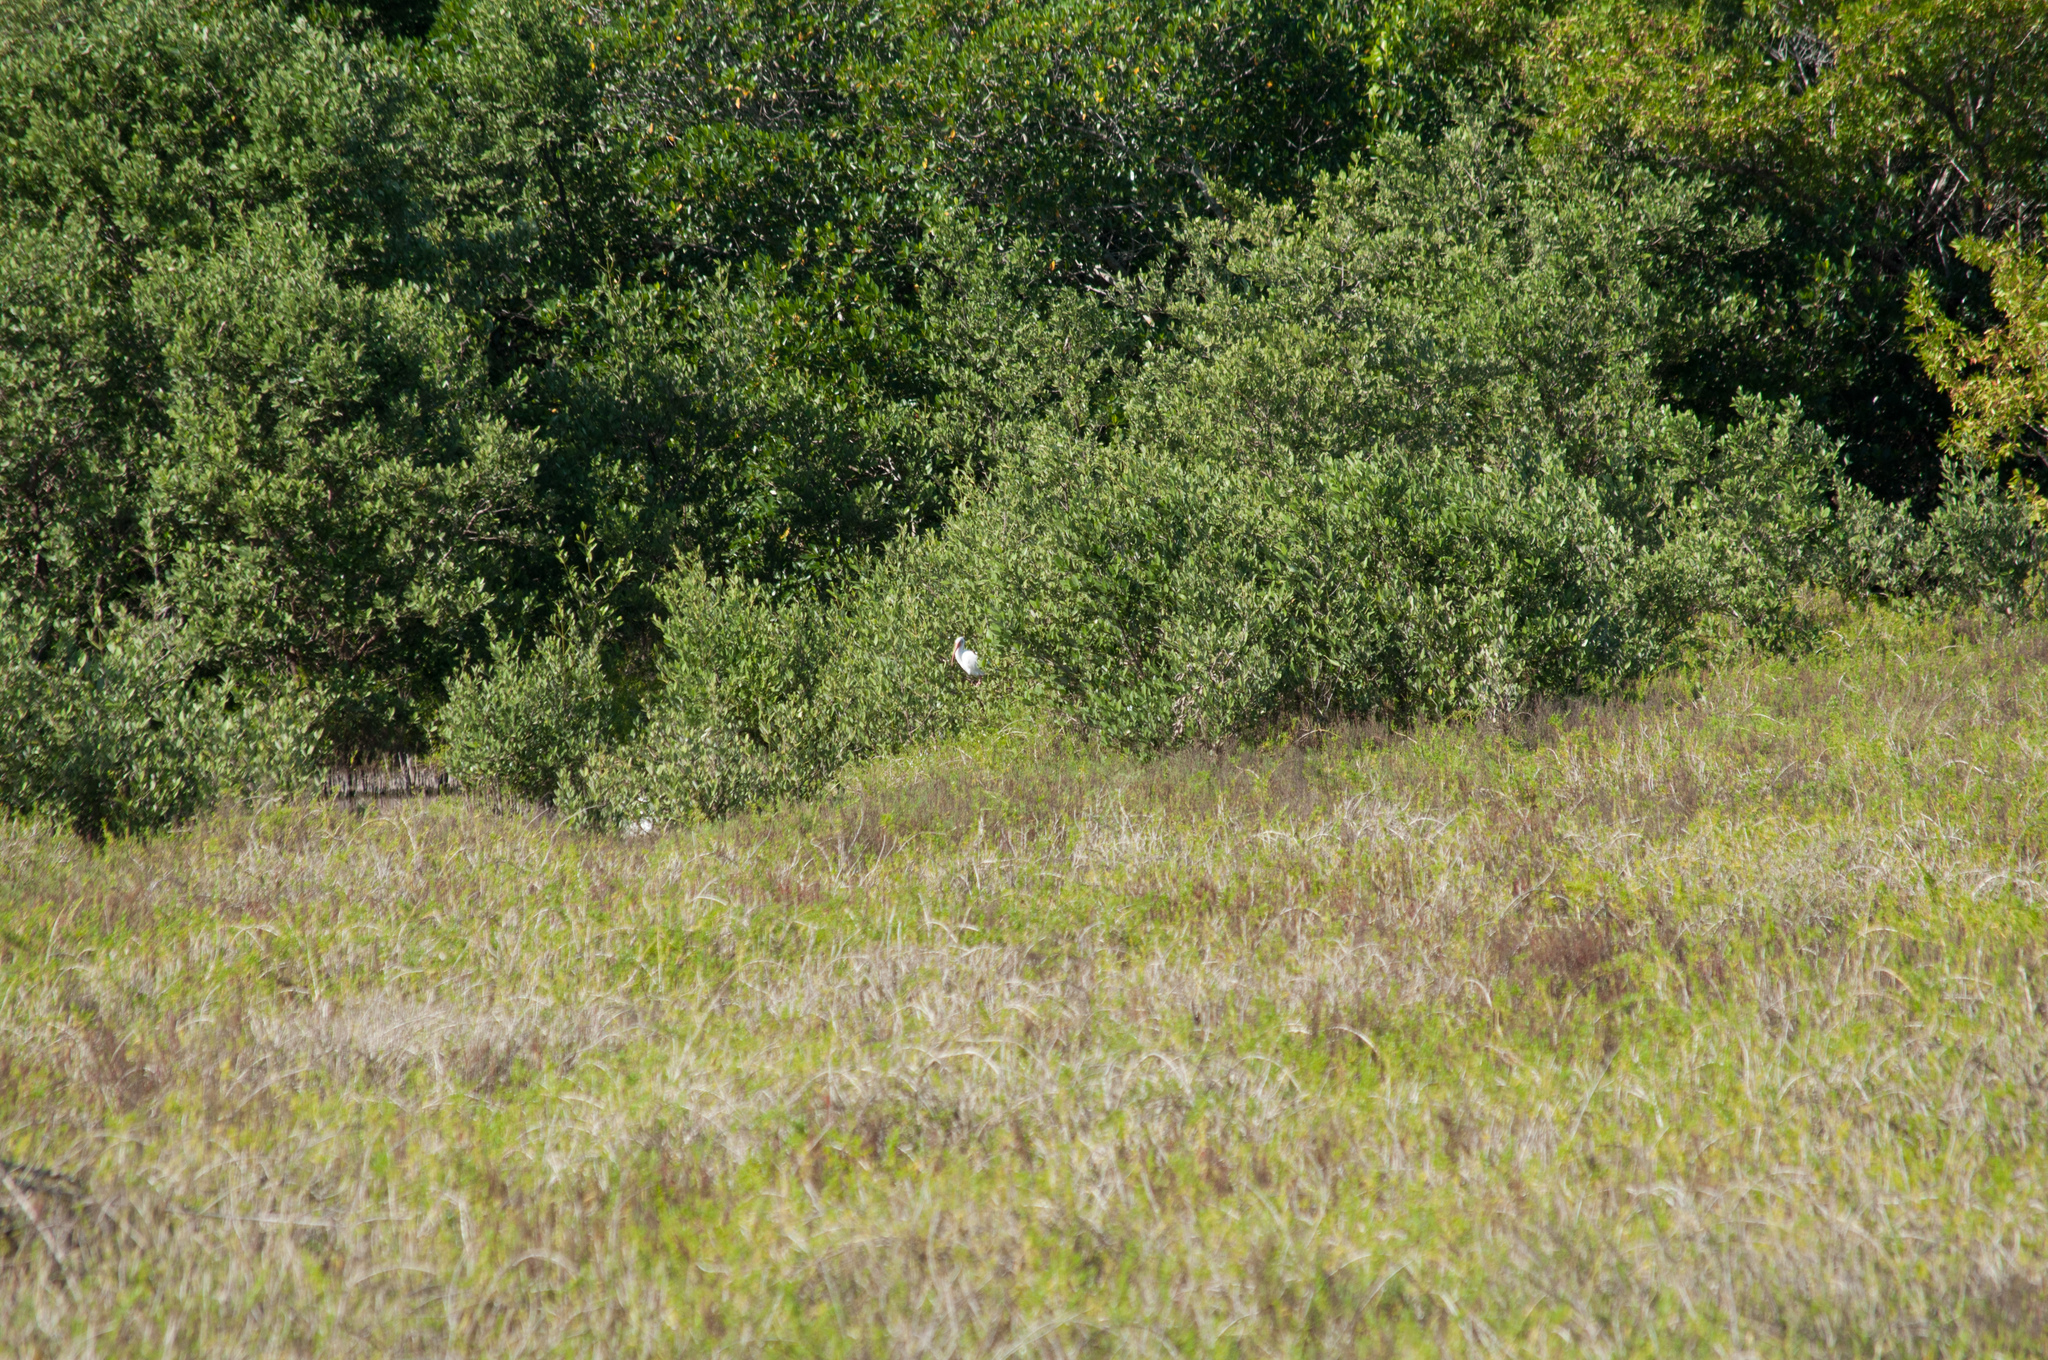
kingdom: Animalia
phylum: Chordata
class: Aves
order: Pelecaniformes
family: Threskiornithidae
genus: Eudocimus
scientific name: Eudocimus albus
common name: White ibis
